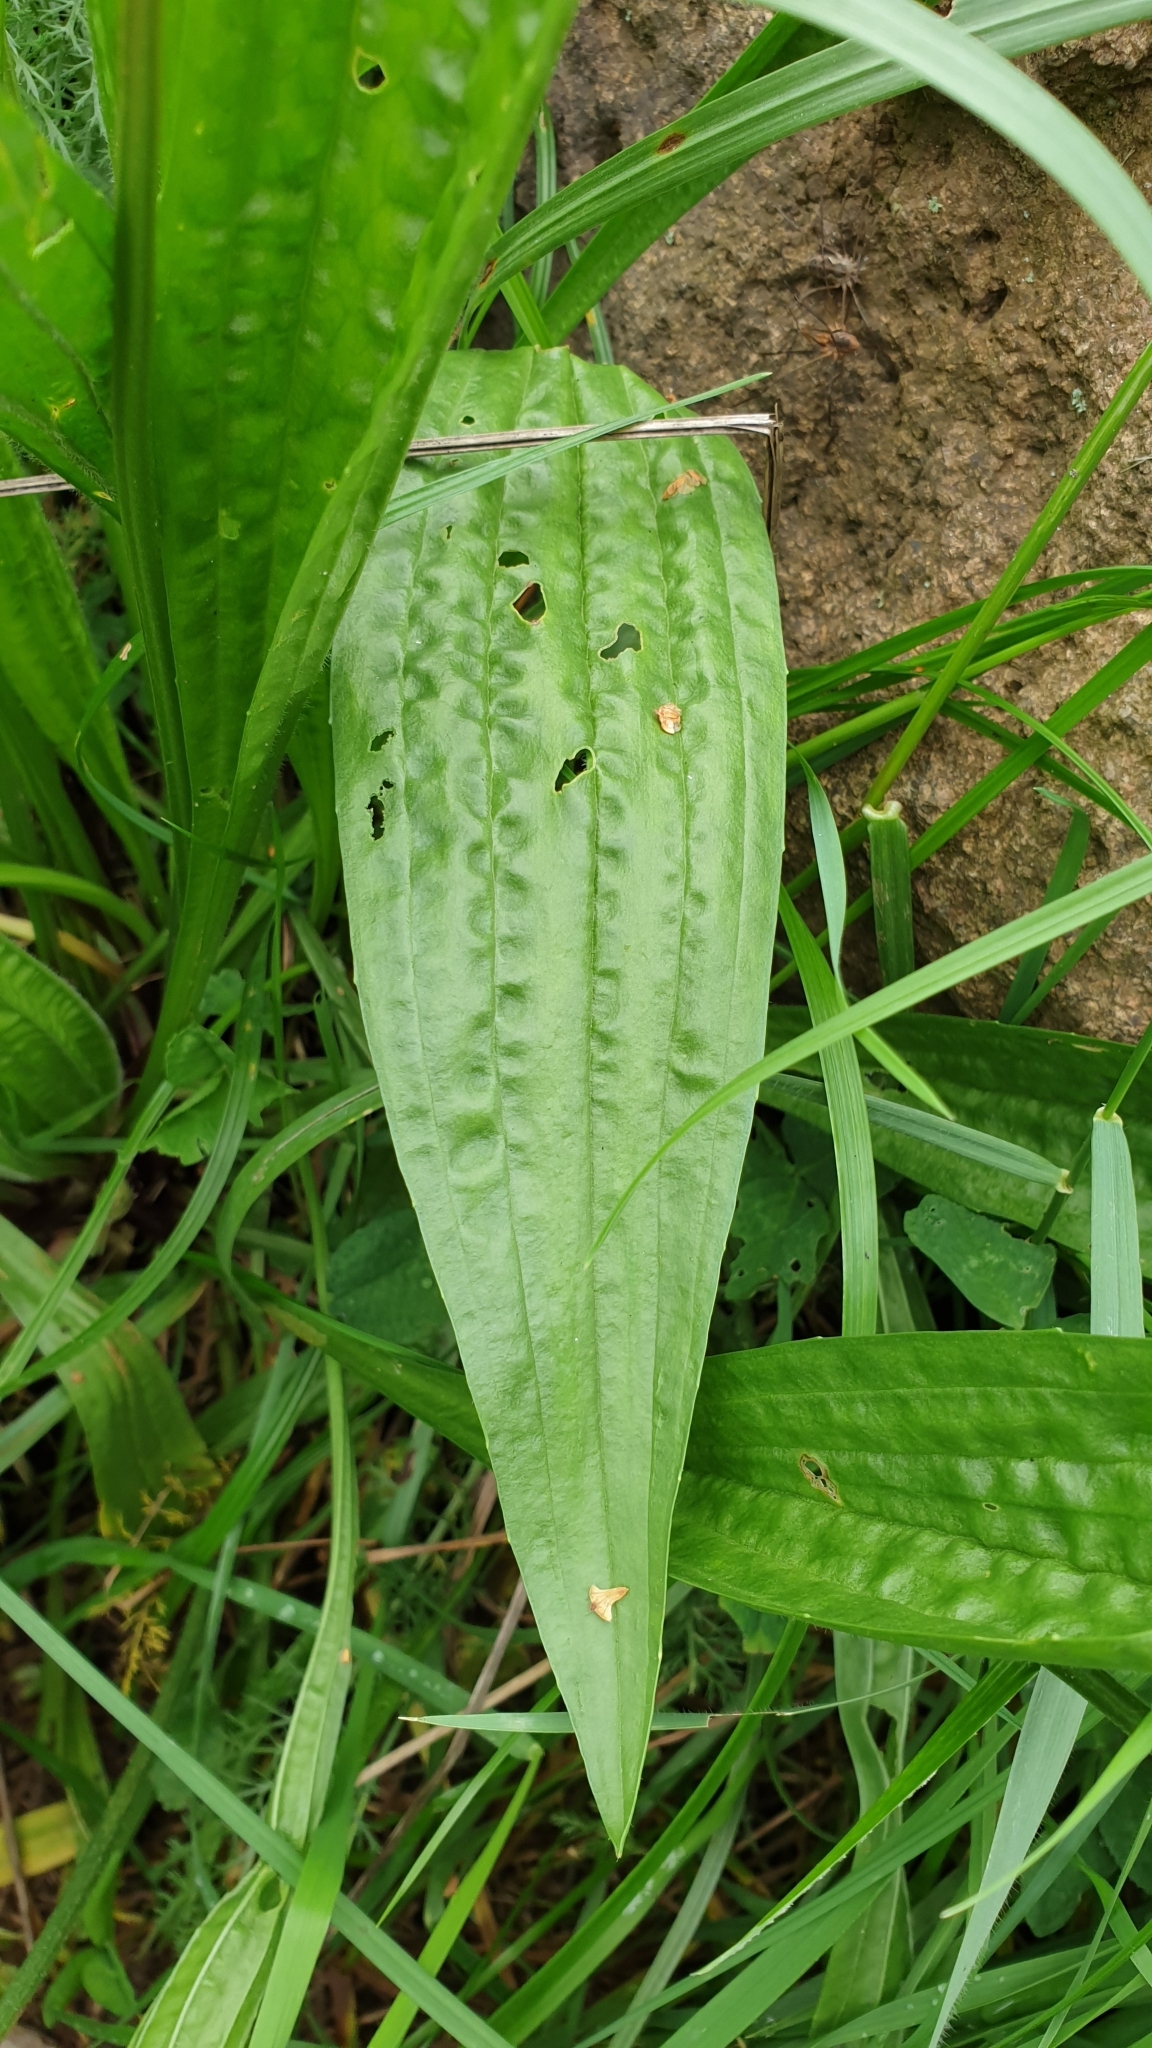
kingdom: Plantae
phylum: Tracheophyta
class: Magnoliopsida
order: Lamiales
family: Plantaginaceae
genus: Plantago
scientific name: Plantago lanceolata
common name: Ribwort plantain
